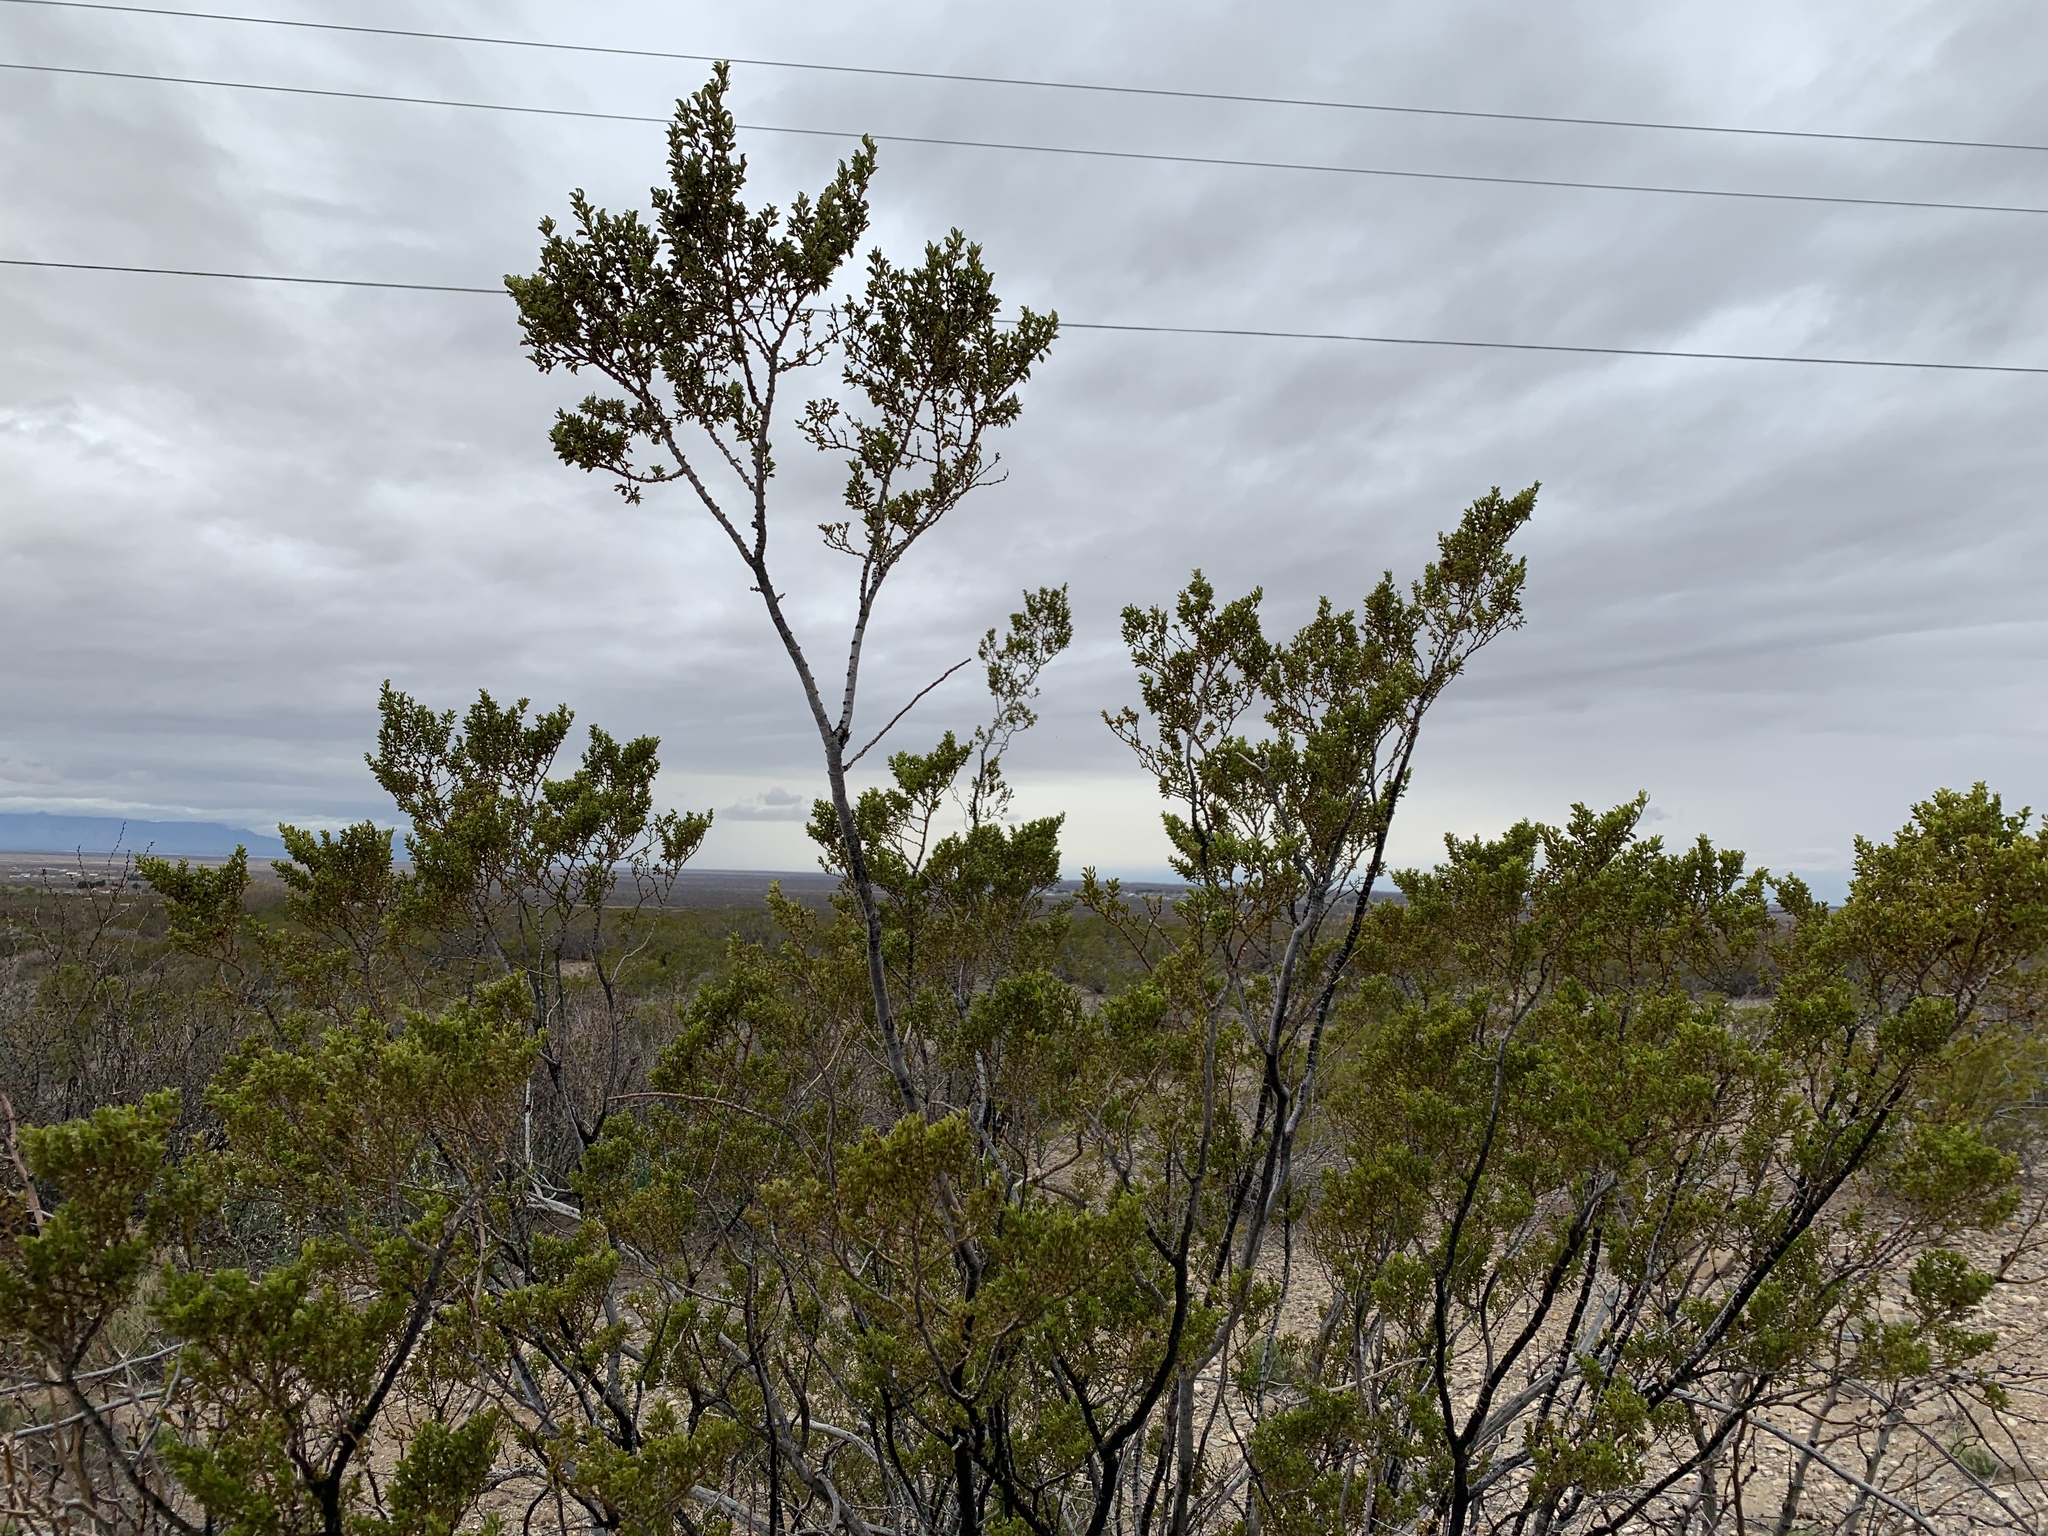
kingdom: Plantae
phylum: Tracheophyta
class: Magnoliopsida
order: Zygophyllales
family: Zygophyllaceae
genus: Larrea
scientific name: Larrea tridentata
